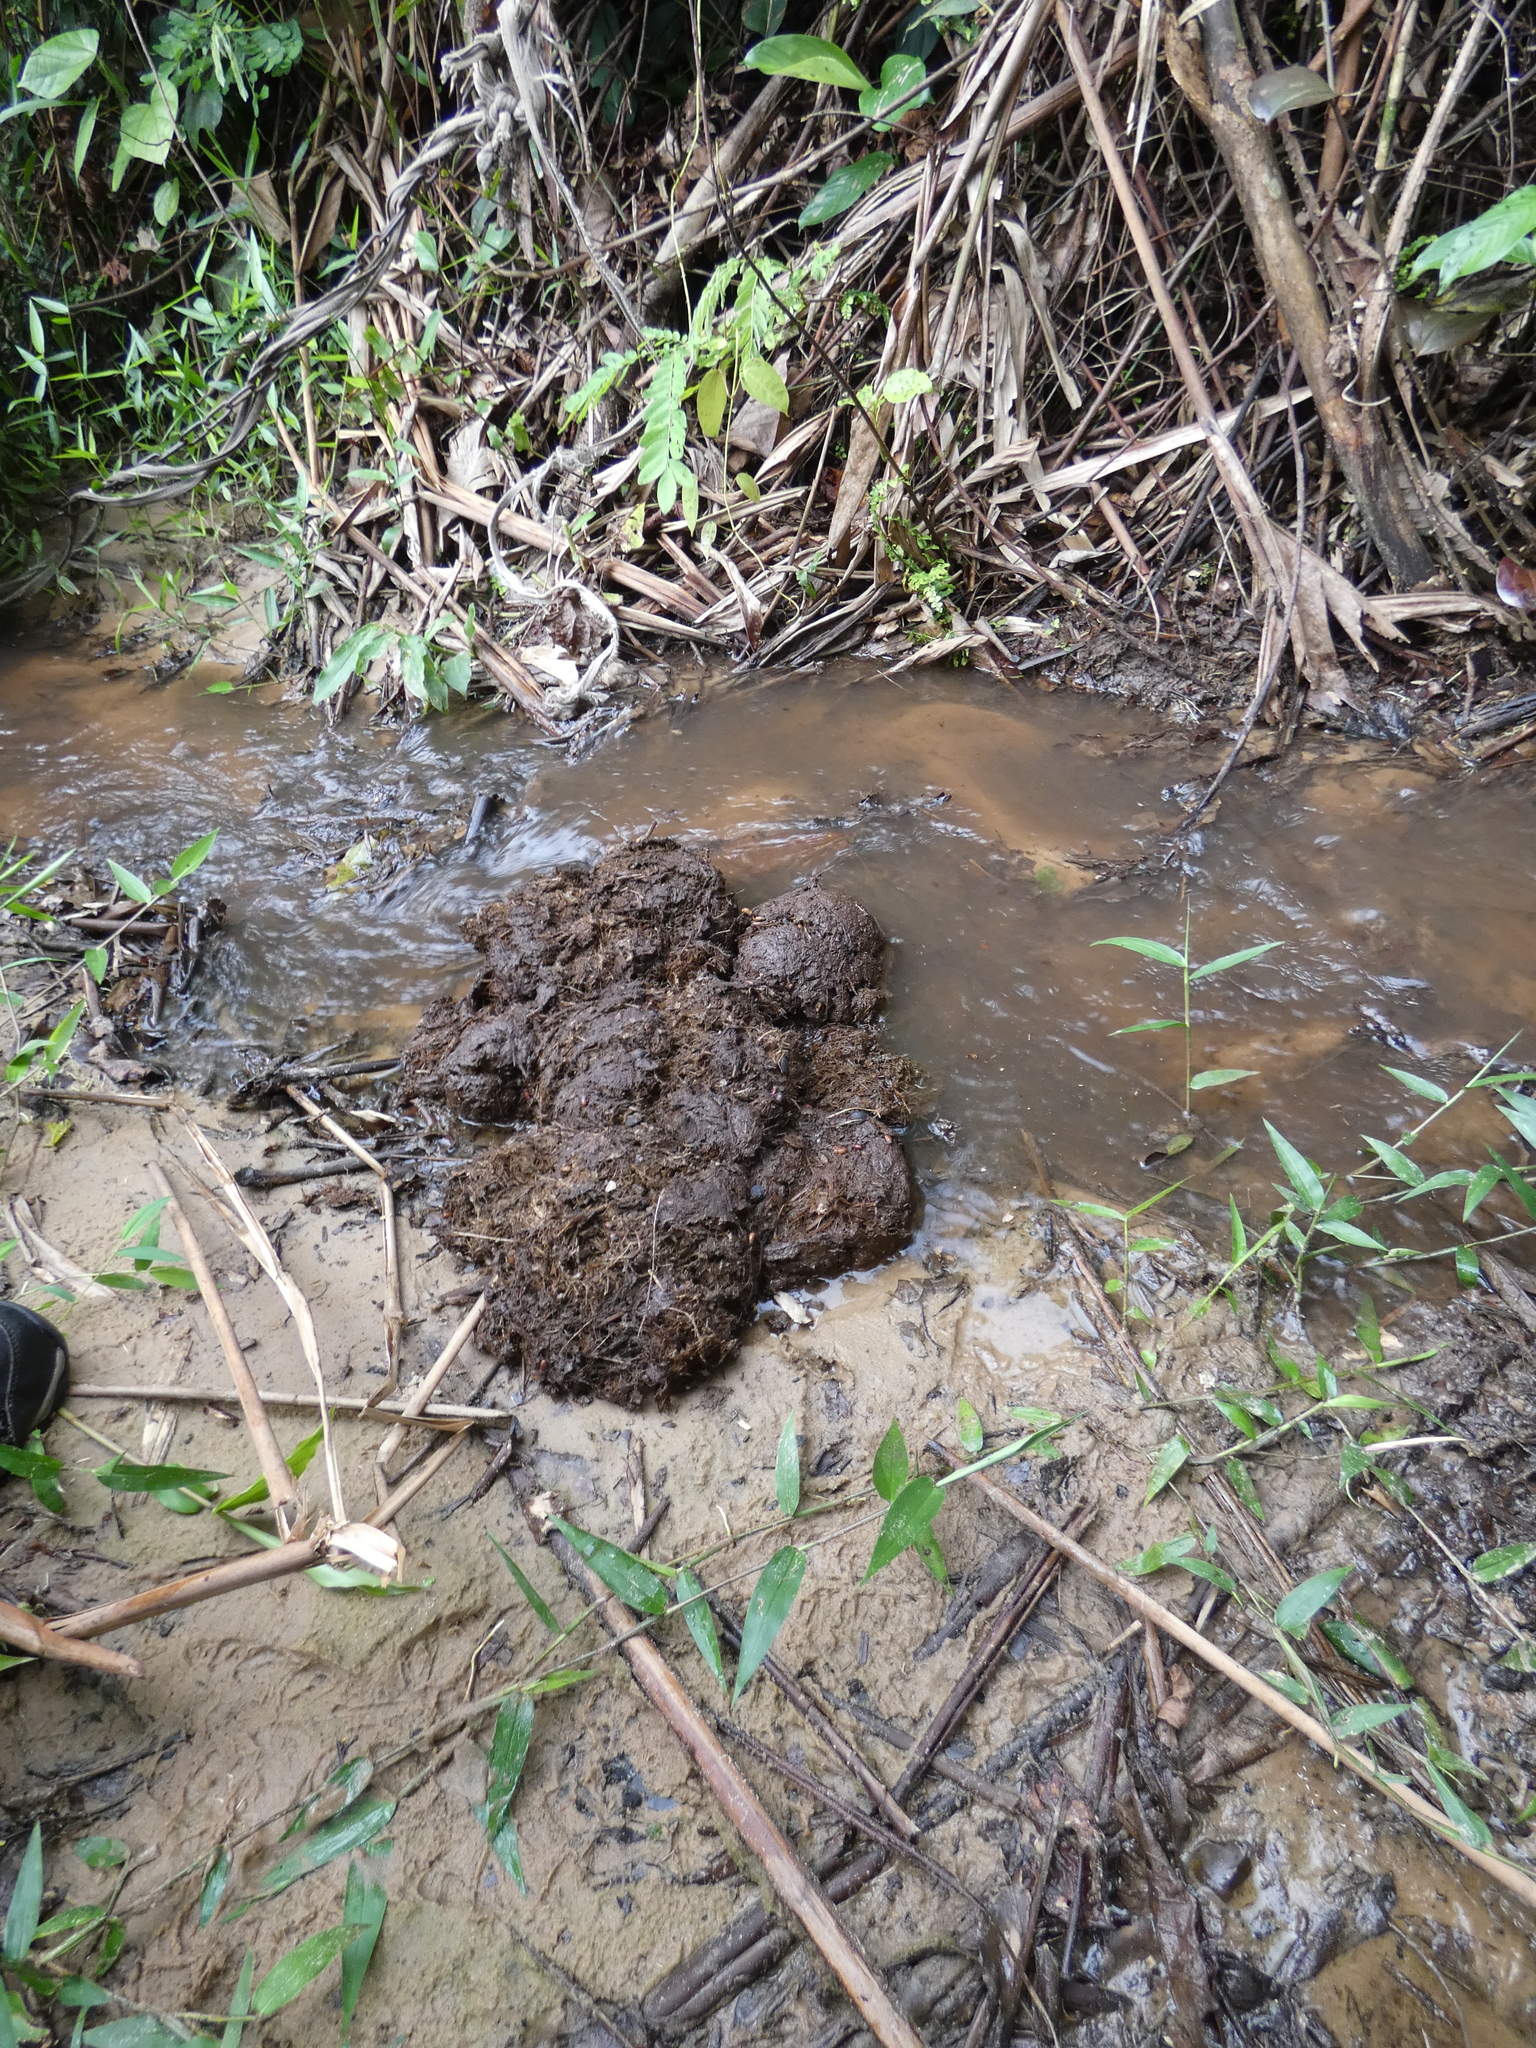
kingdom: Animalia
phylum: Chordata
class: Mammalia
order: Proboscidea
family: Elephantidae
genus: Loxodonta
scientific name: Loxodonta cyclotis
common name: African forest elephant
